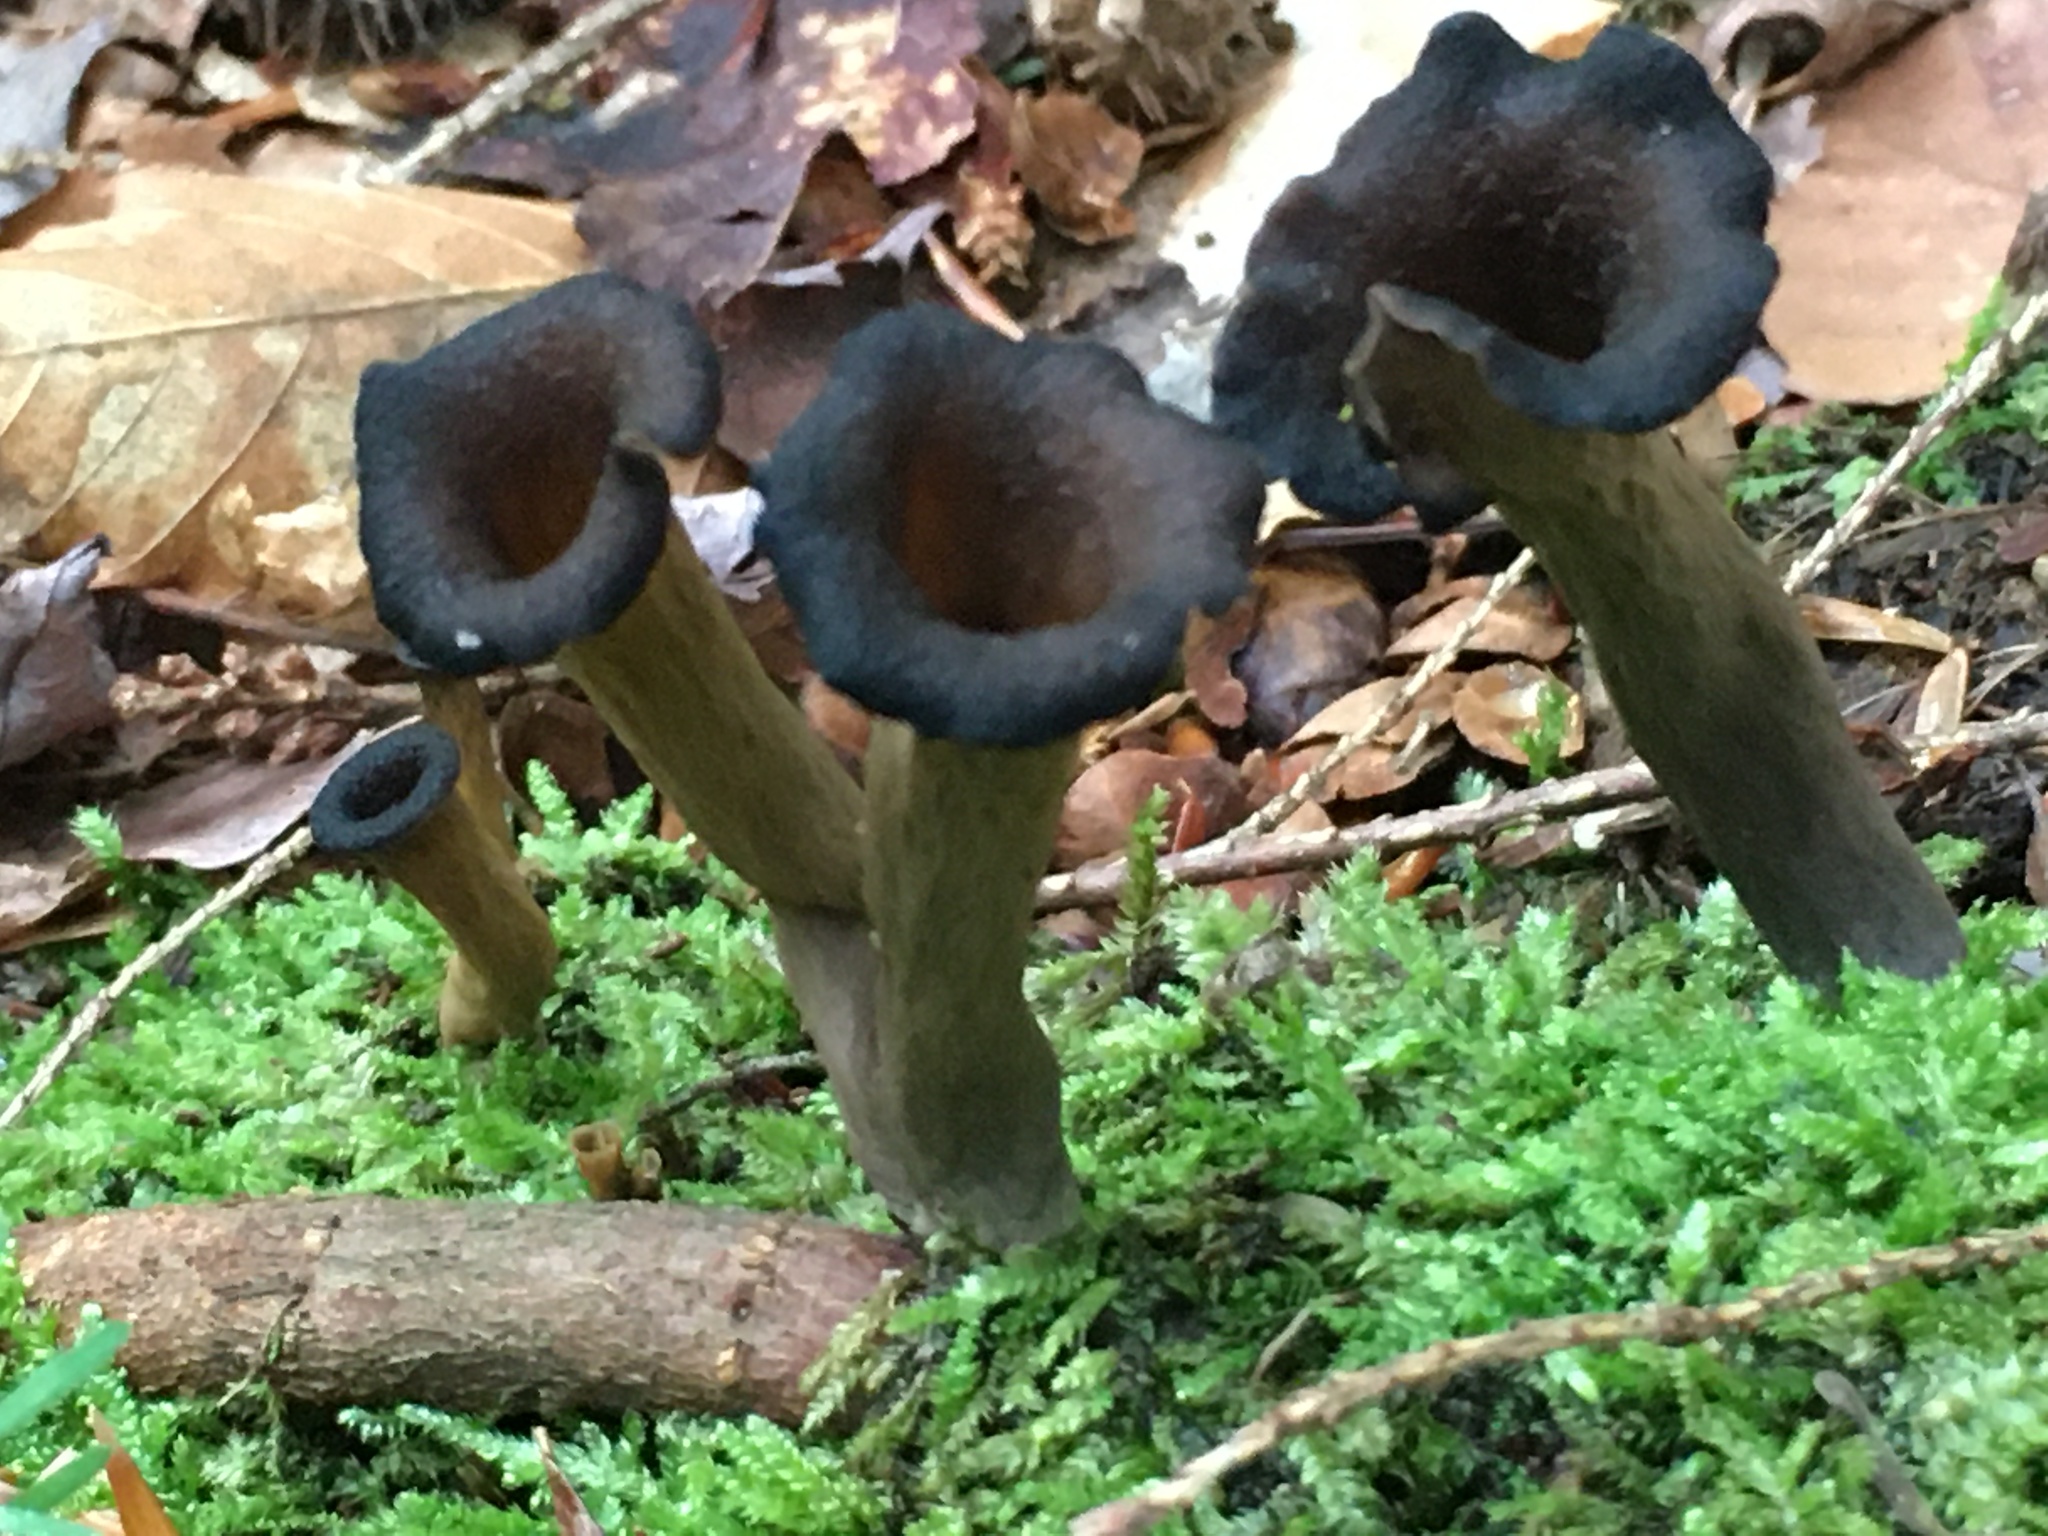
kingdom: Fungi
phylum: Basidiomycota
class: Agaricomycetes
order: Cantharellales
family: Hydnaceae
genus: Craterellus
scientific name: Craterellus cornucopioides
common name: Horn of plenty
